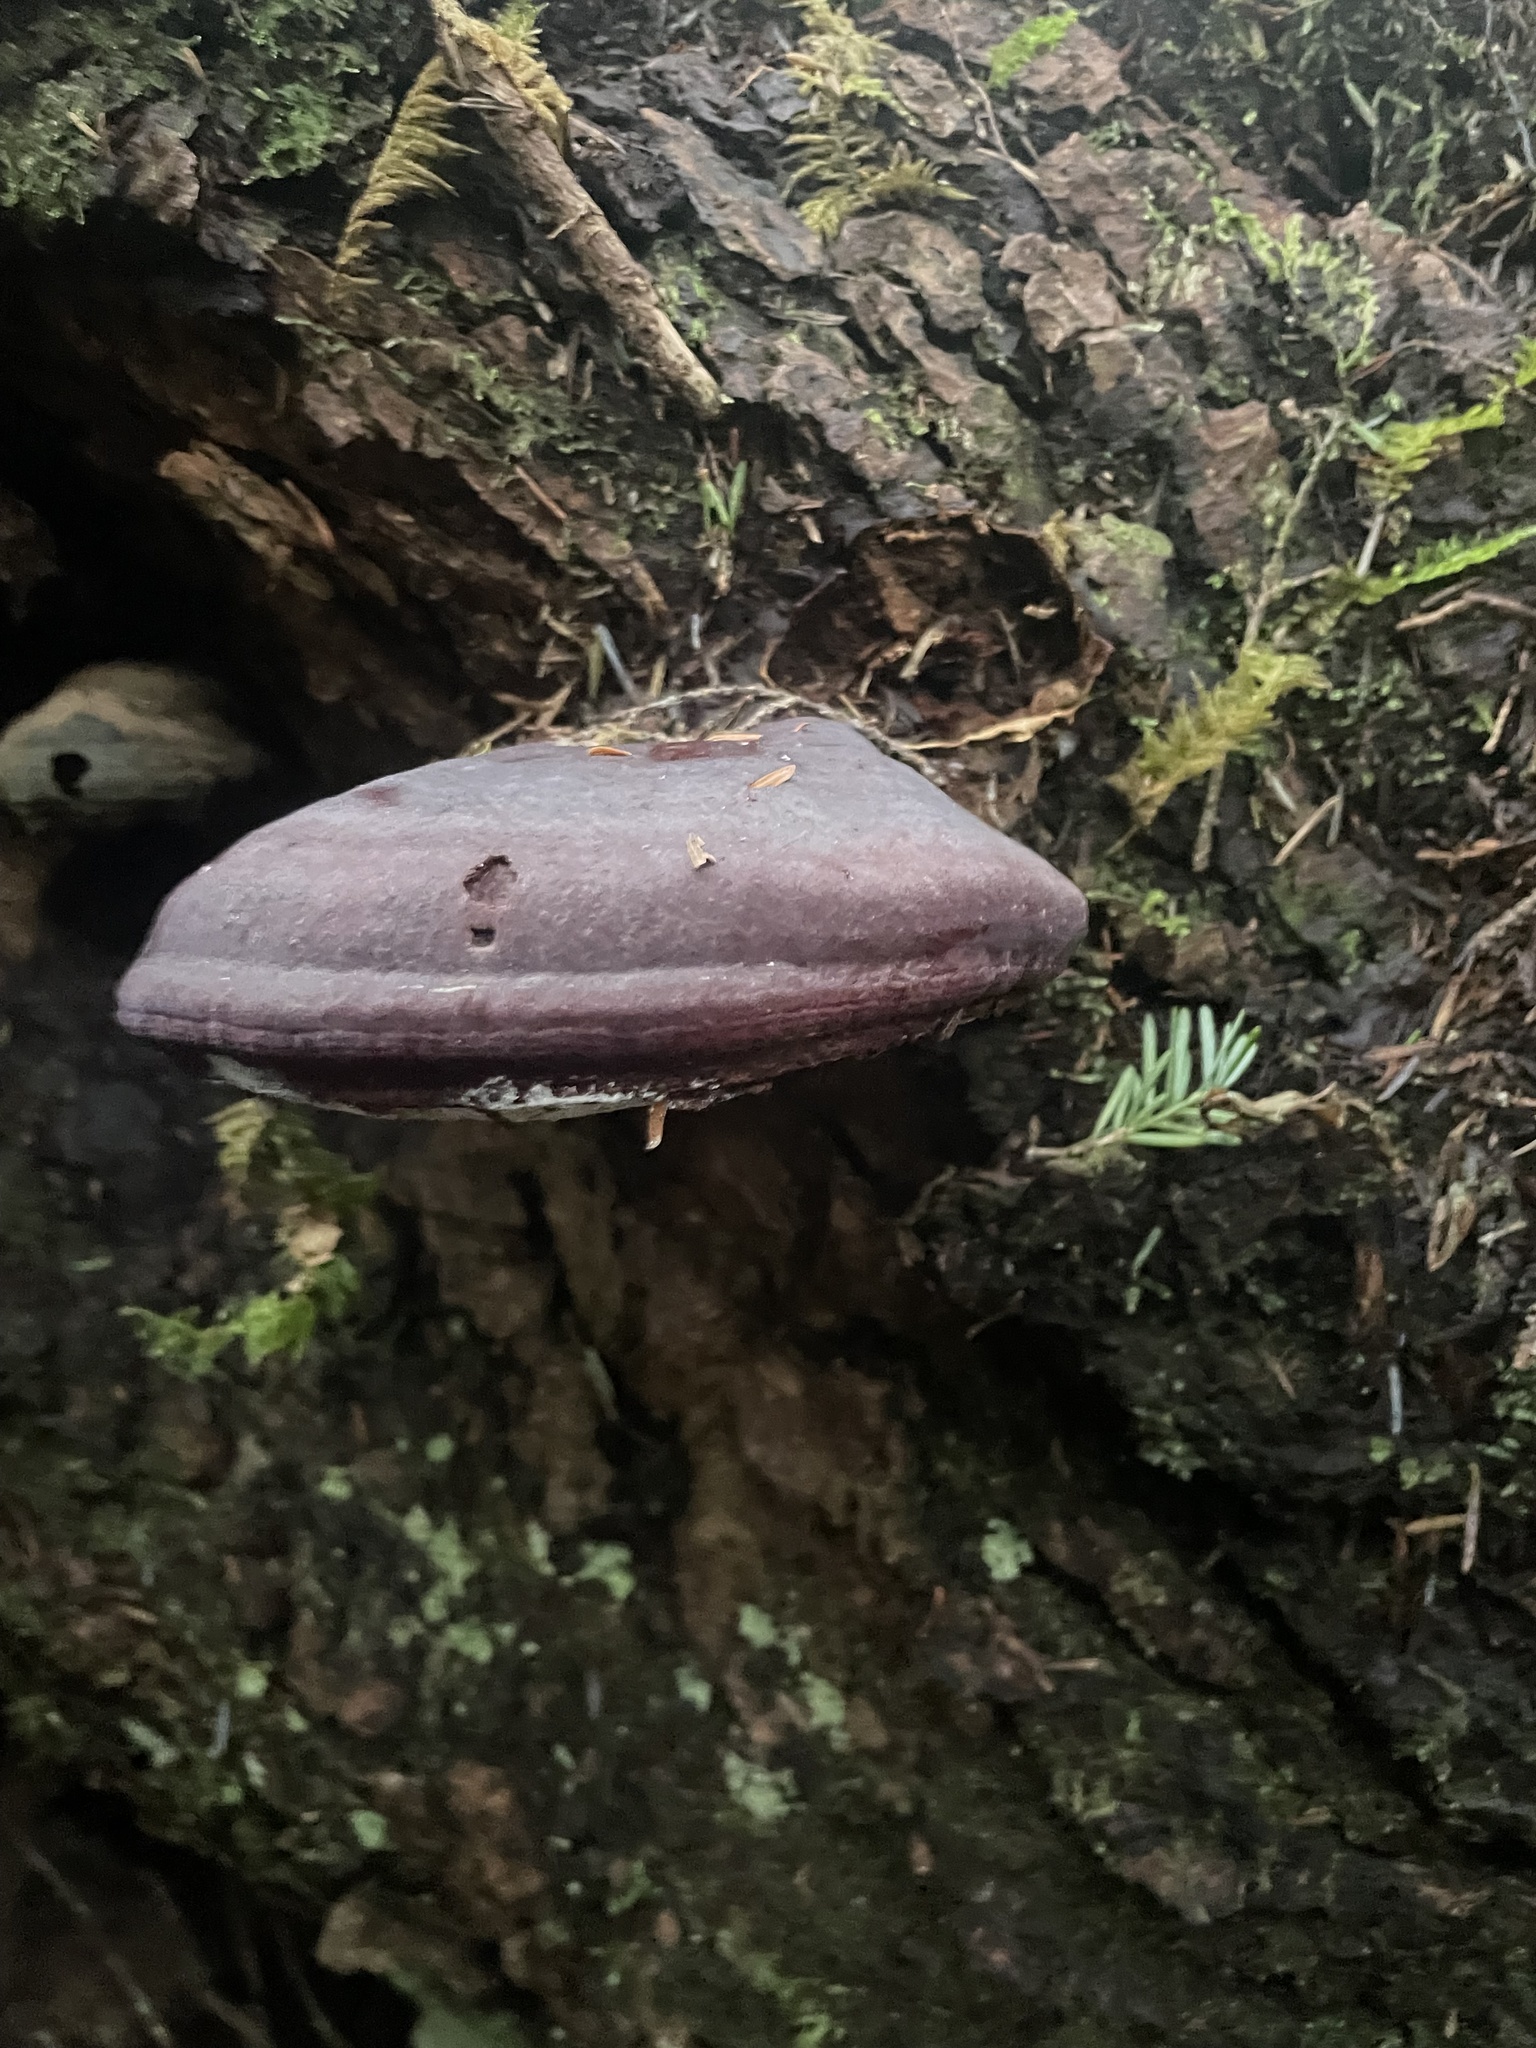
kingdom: Fungi
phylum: Basidiomycota
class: Agaricomycetes
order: Polyporales
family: Polyporaceae
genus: Ganoderma
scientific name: Ganoderma oregonense
